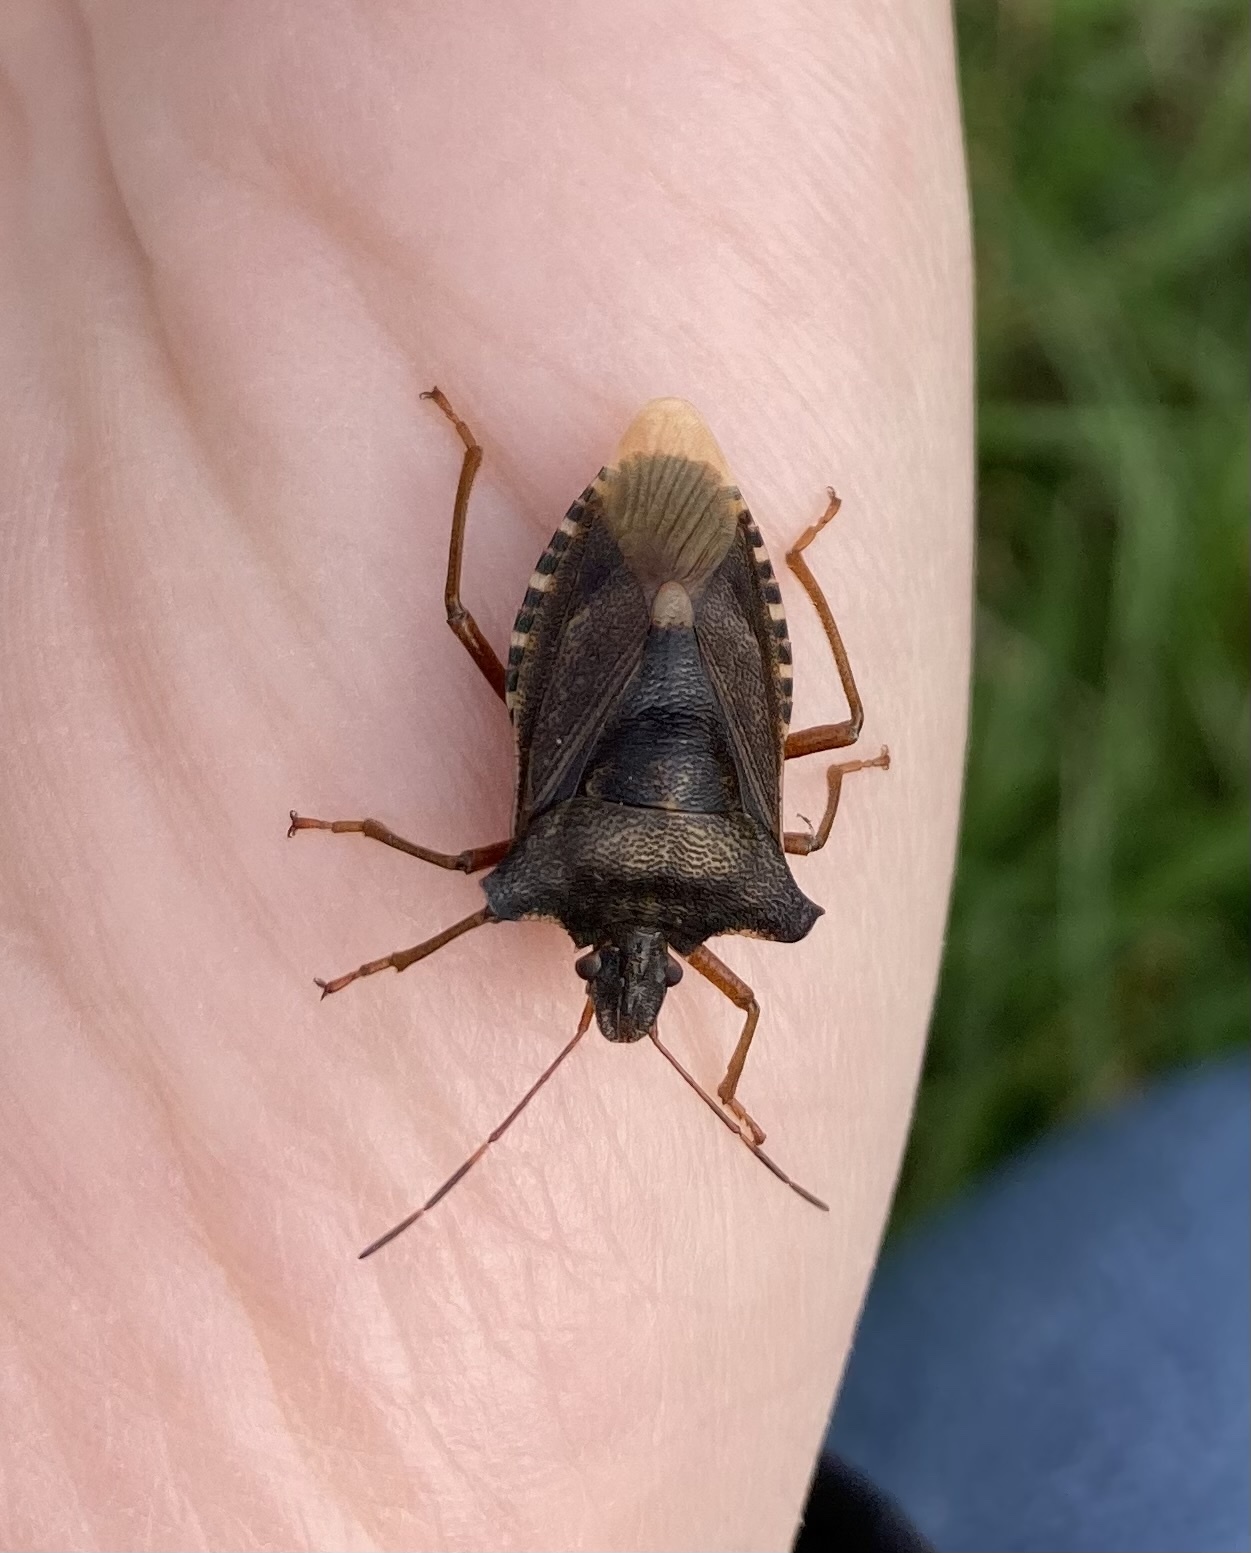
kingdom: Animalia
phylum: Arthropoda
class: Insecta
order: Hemiptera
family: Pentatomidae
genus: Pentatoma
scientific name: Pentatoma rufipes
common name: Forest bug
